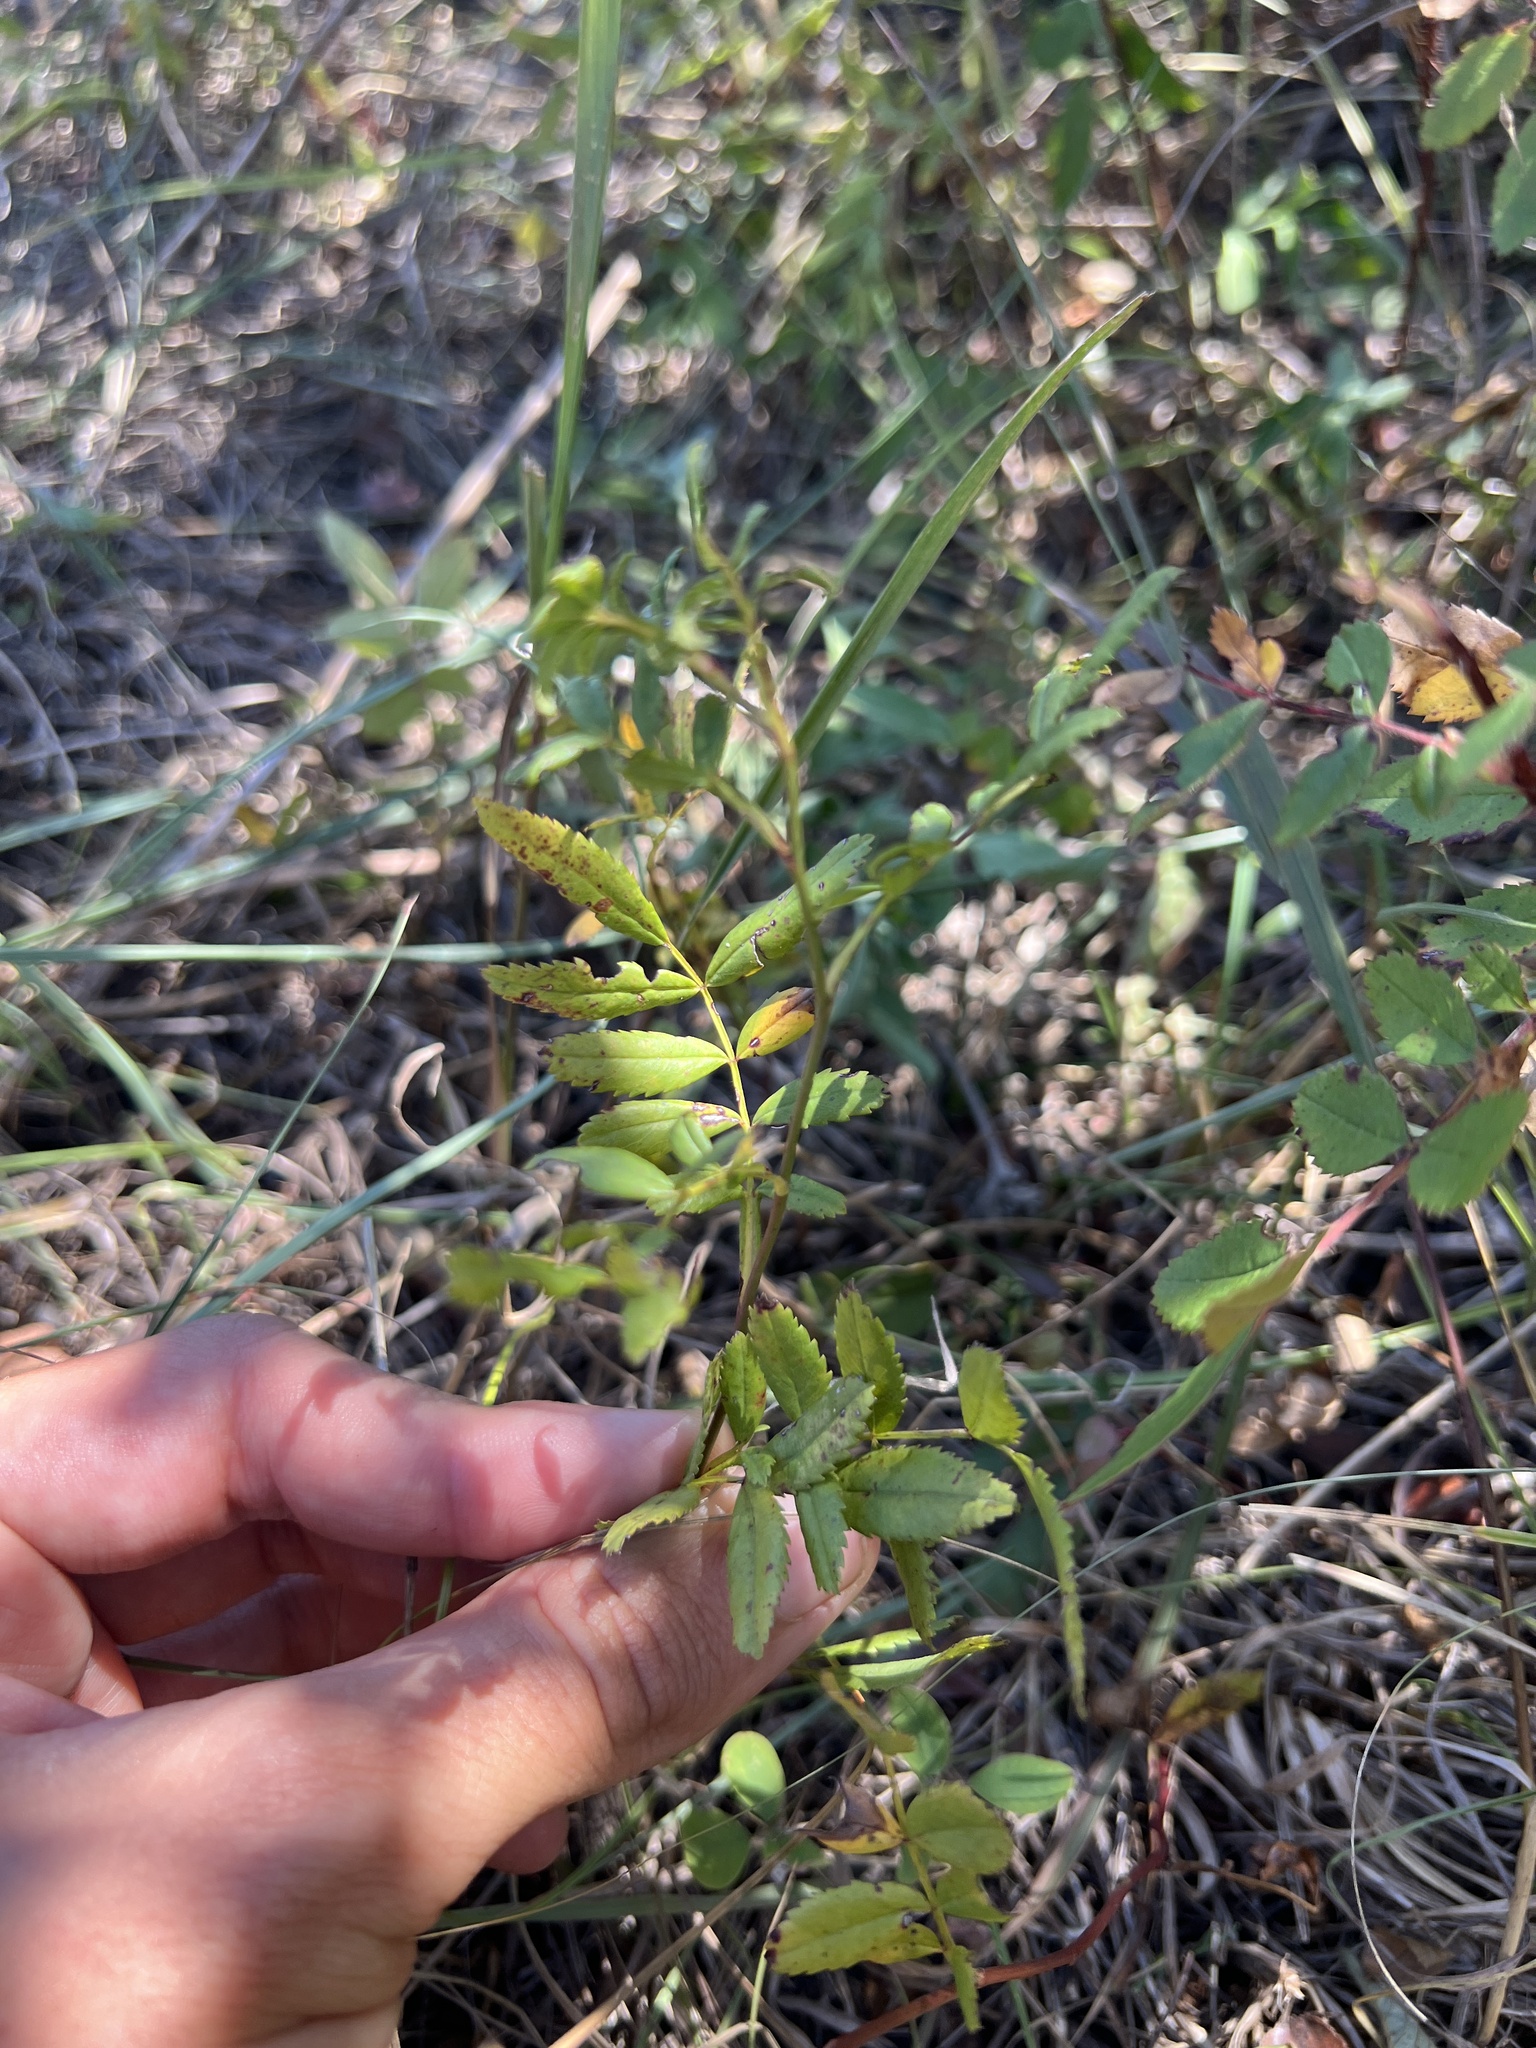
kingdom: Plantae
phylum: Tracheophyta
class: Magnoliopsida
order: Rosales
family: Rosaceae
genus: Rosa
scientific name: Rosa foliolosa
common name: White prairie rose
